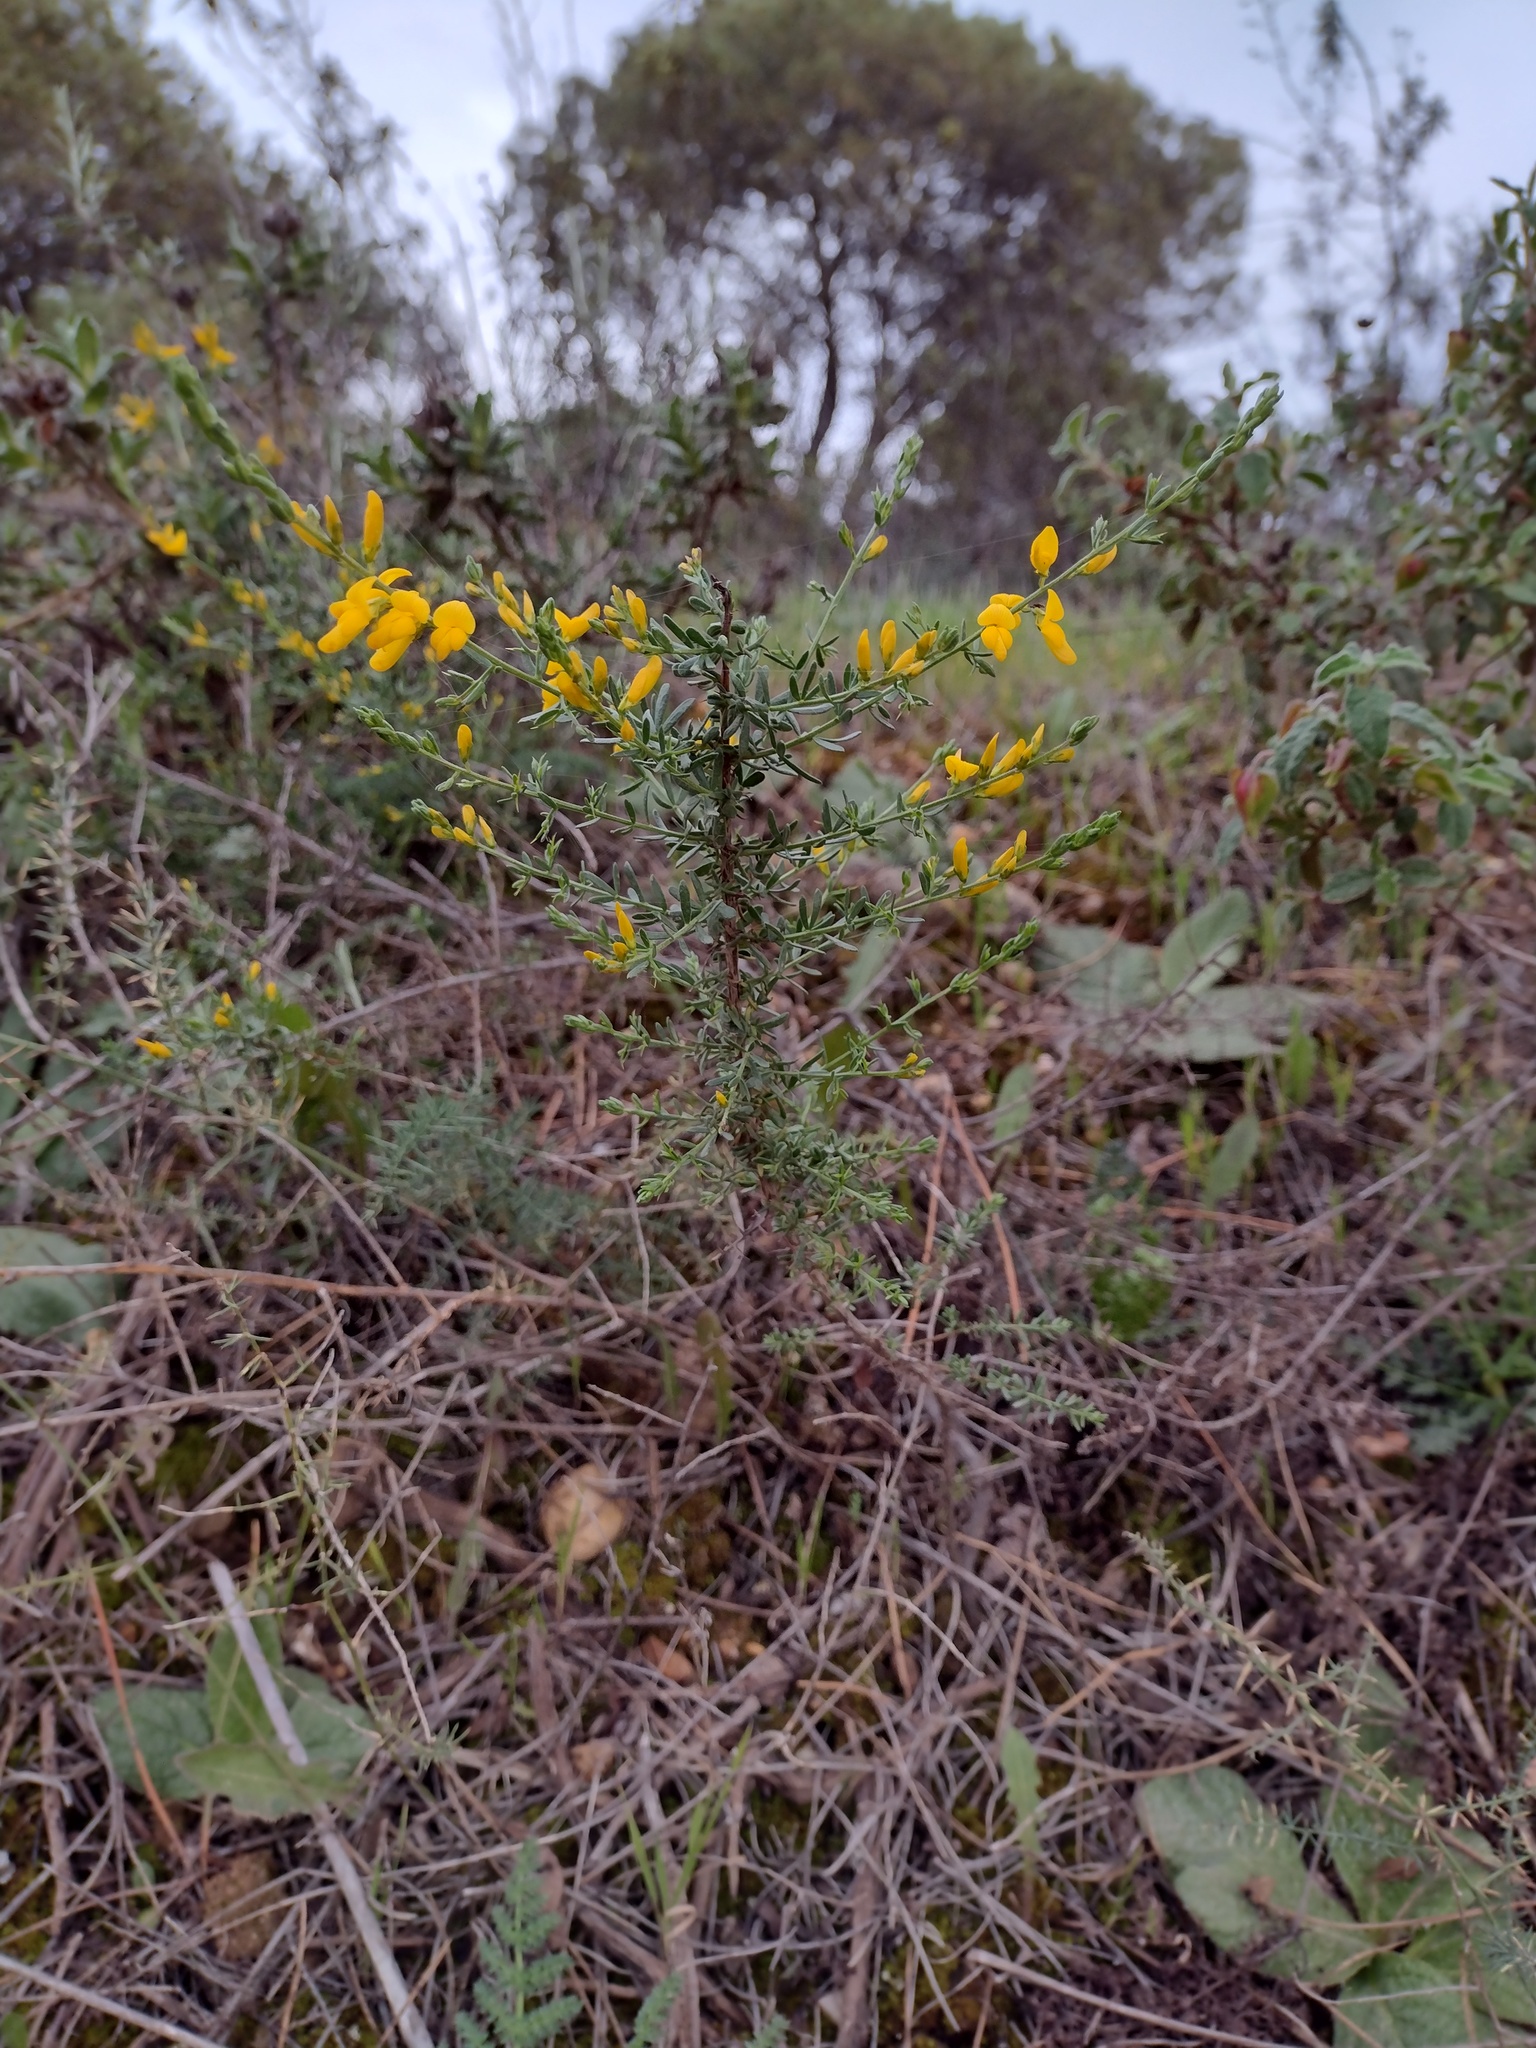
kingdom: Plantae
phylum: Tracheophyta
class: Magnoliopsida
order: Fabales
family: Fabaceae
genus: Genista
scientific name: Genista triacanthos
